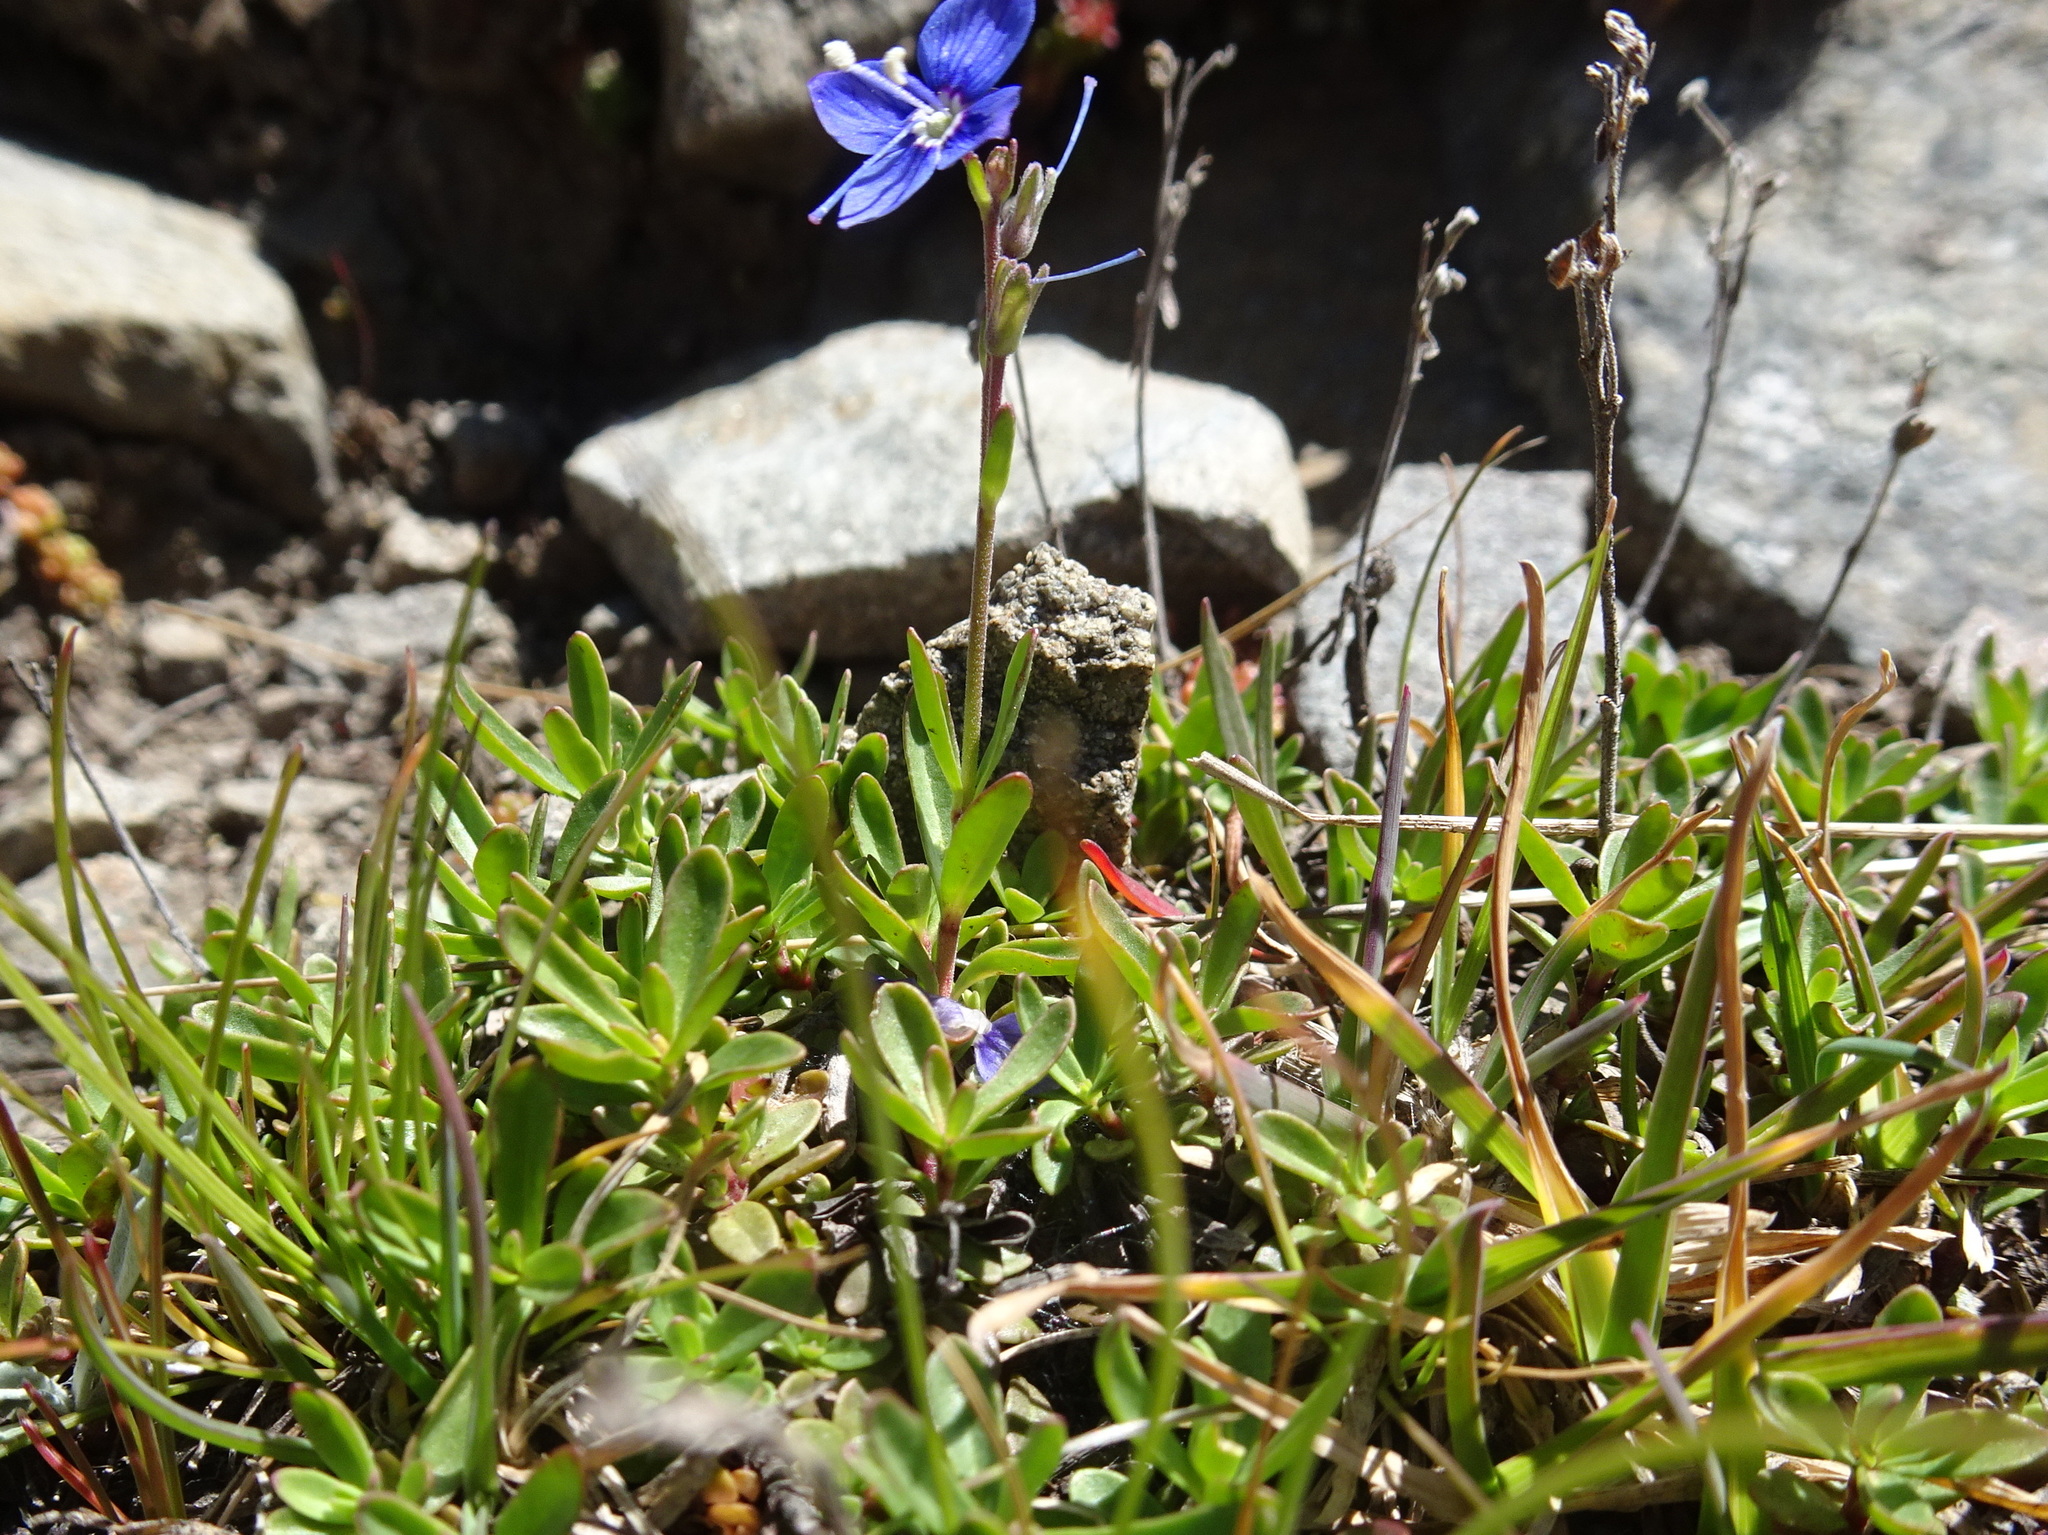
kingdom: Plantae
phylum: Tracheophyta
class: Magnoliopsida
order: Lamiales
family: Plantaginaceae
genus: Veronica
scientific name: Veronica fruticans
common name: Rock speedwell
